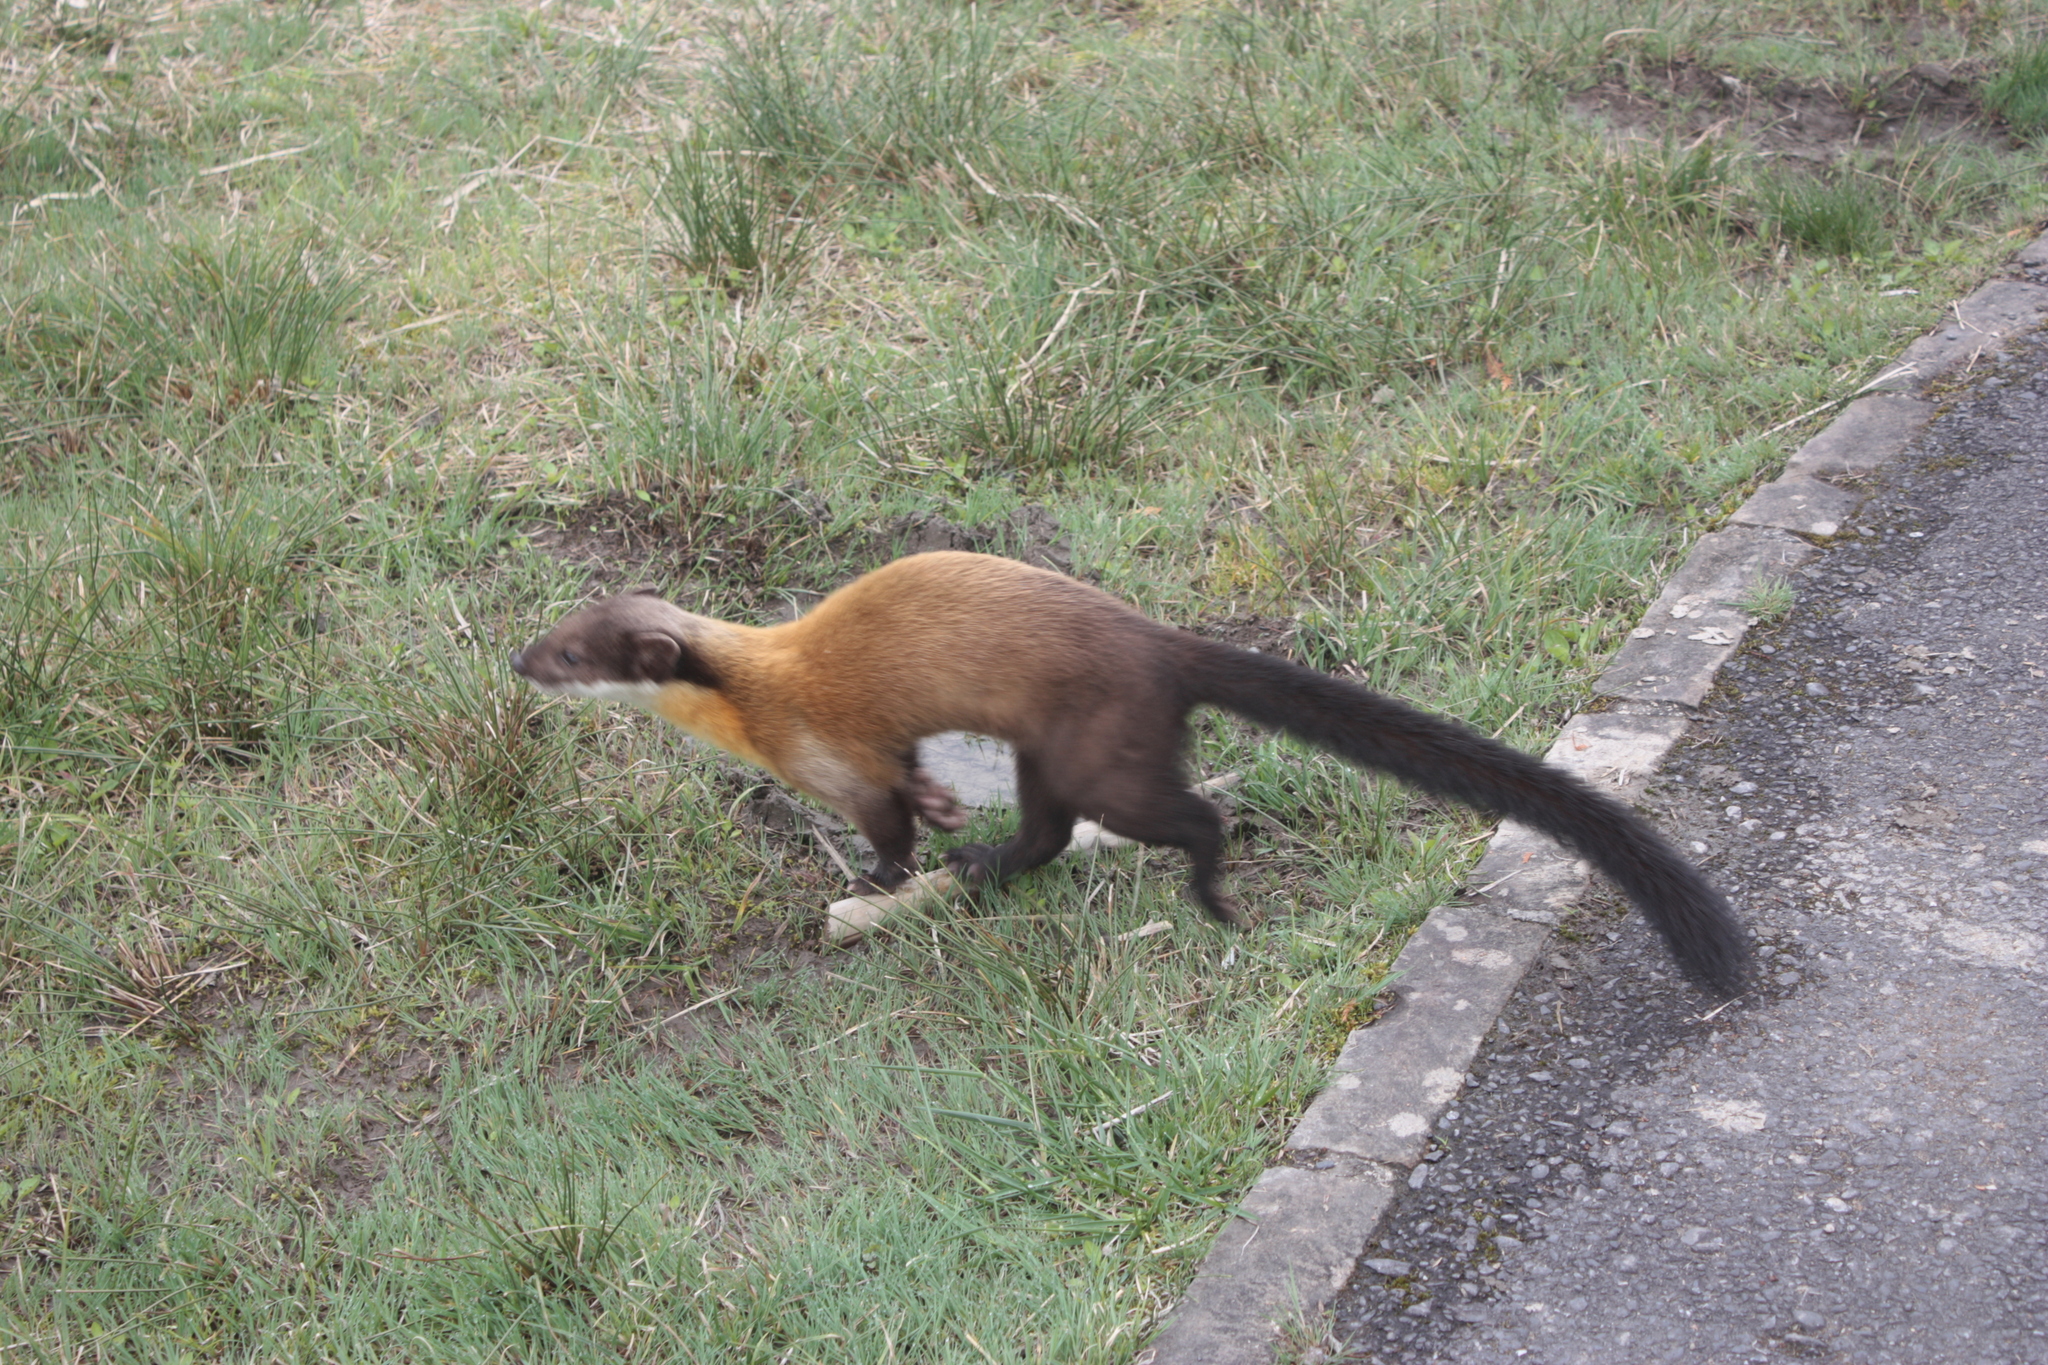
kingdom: Animalia
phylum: Chordata
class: Mammalia
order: Carnivora
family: Mustelidae
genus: Martes
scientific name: Martes flavigula
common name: Yellow-throated marten
